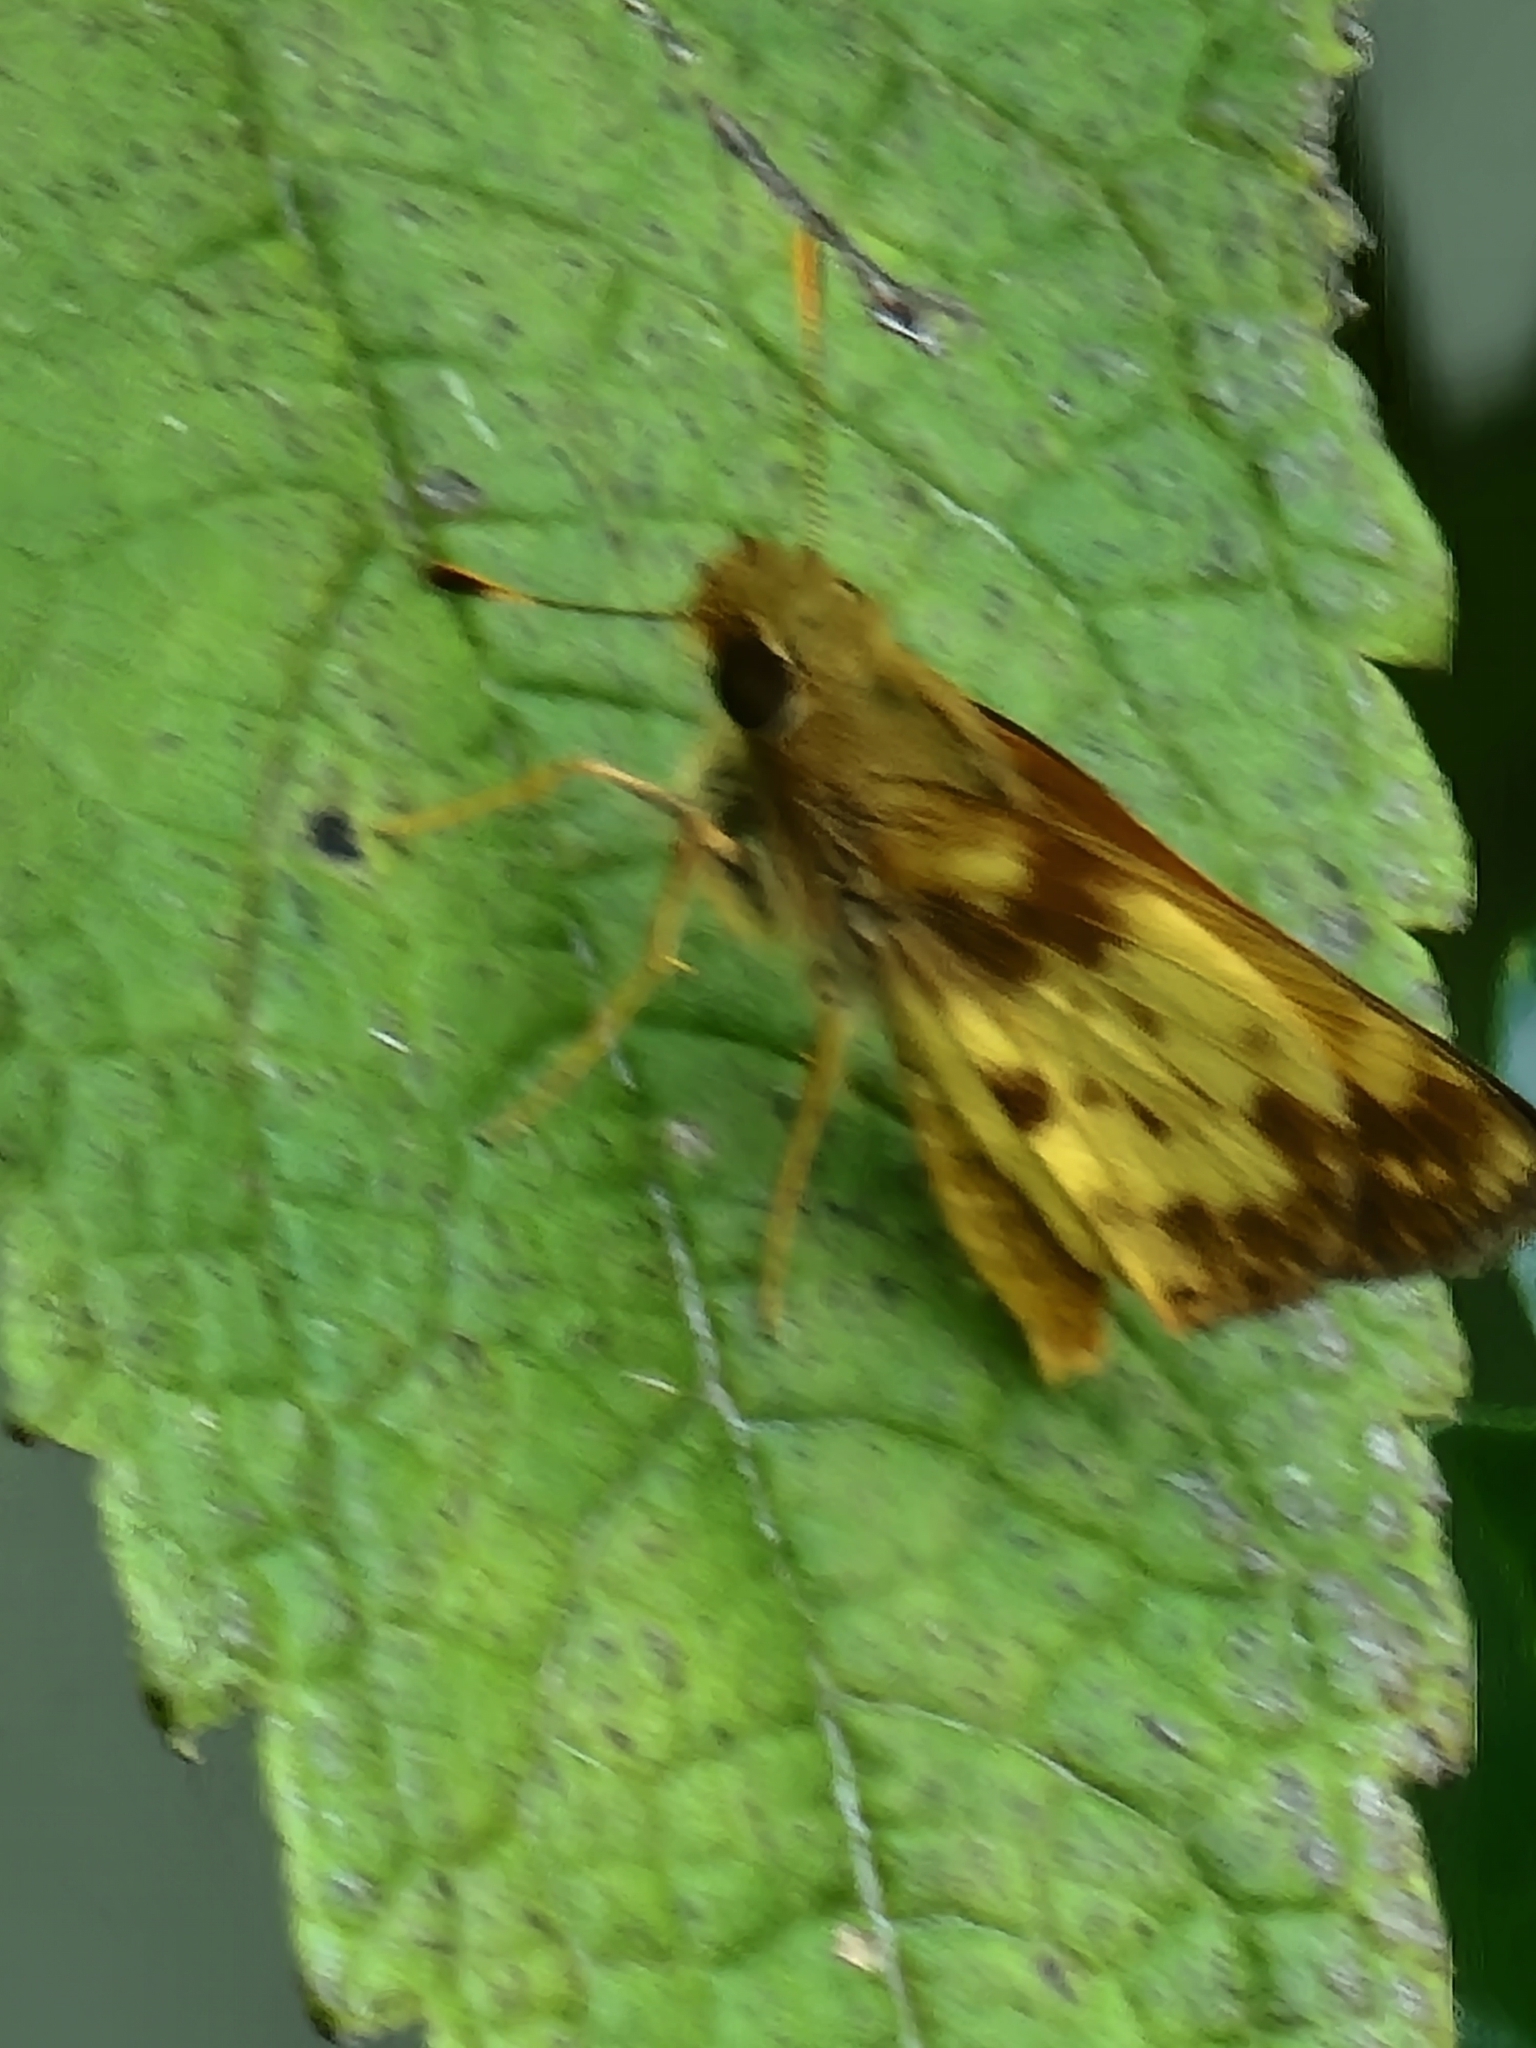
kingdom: Animalia
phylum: Arthropoda
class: Insecta
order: Lepidoptera
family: Hesperiidae
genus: Lon
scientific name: Lon zabulon
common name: Zabulon skipper
